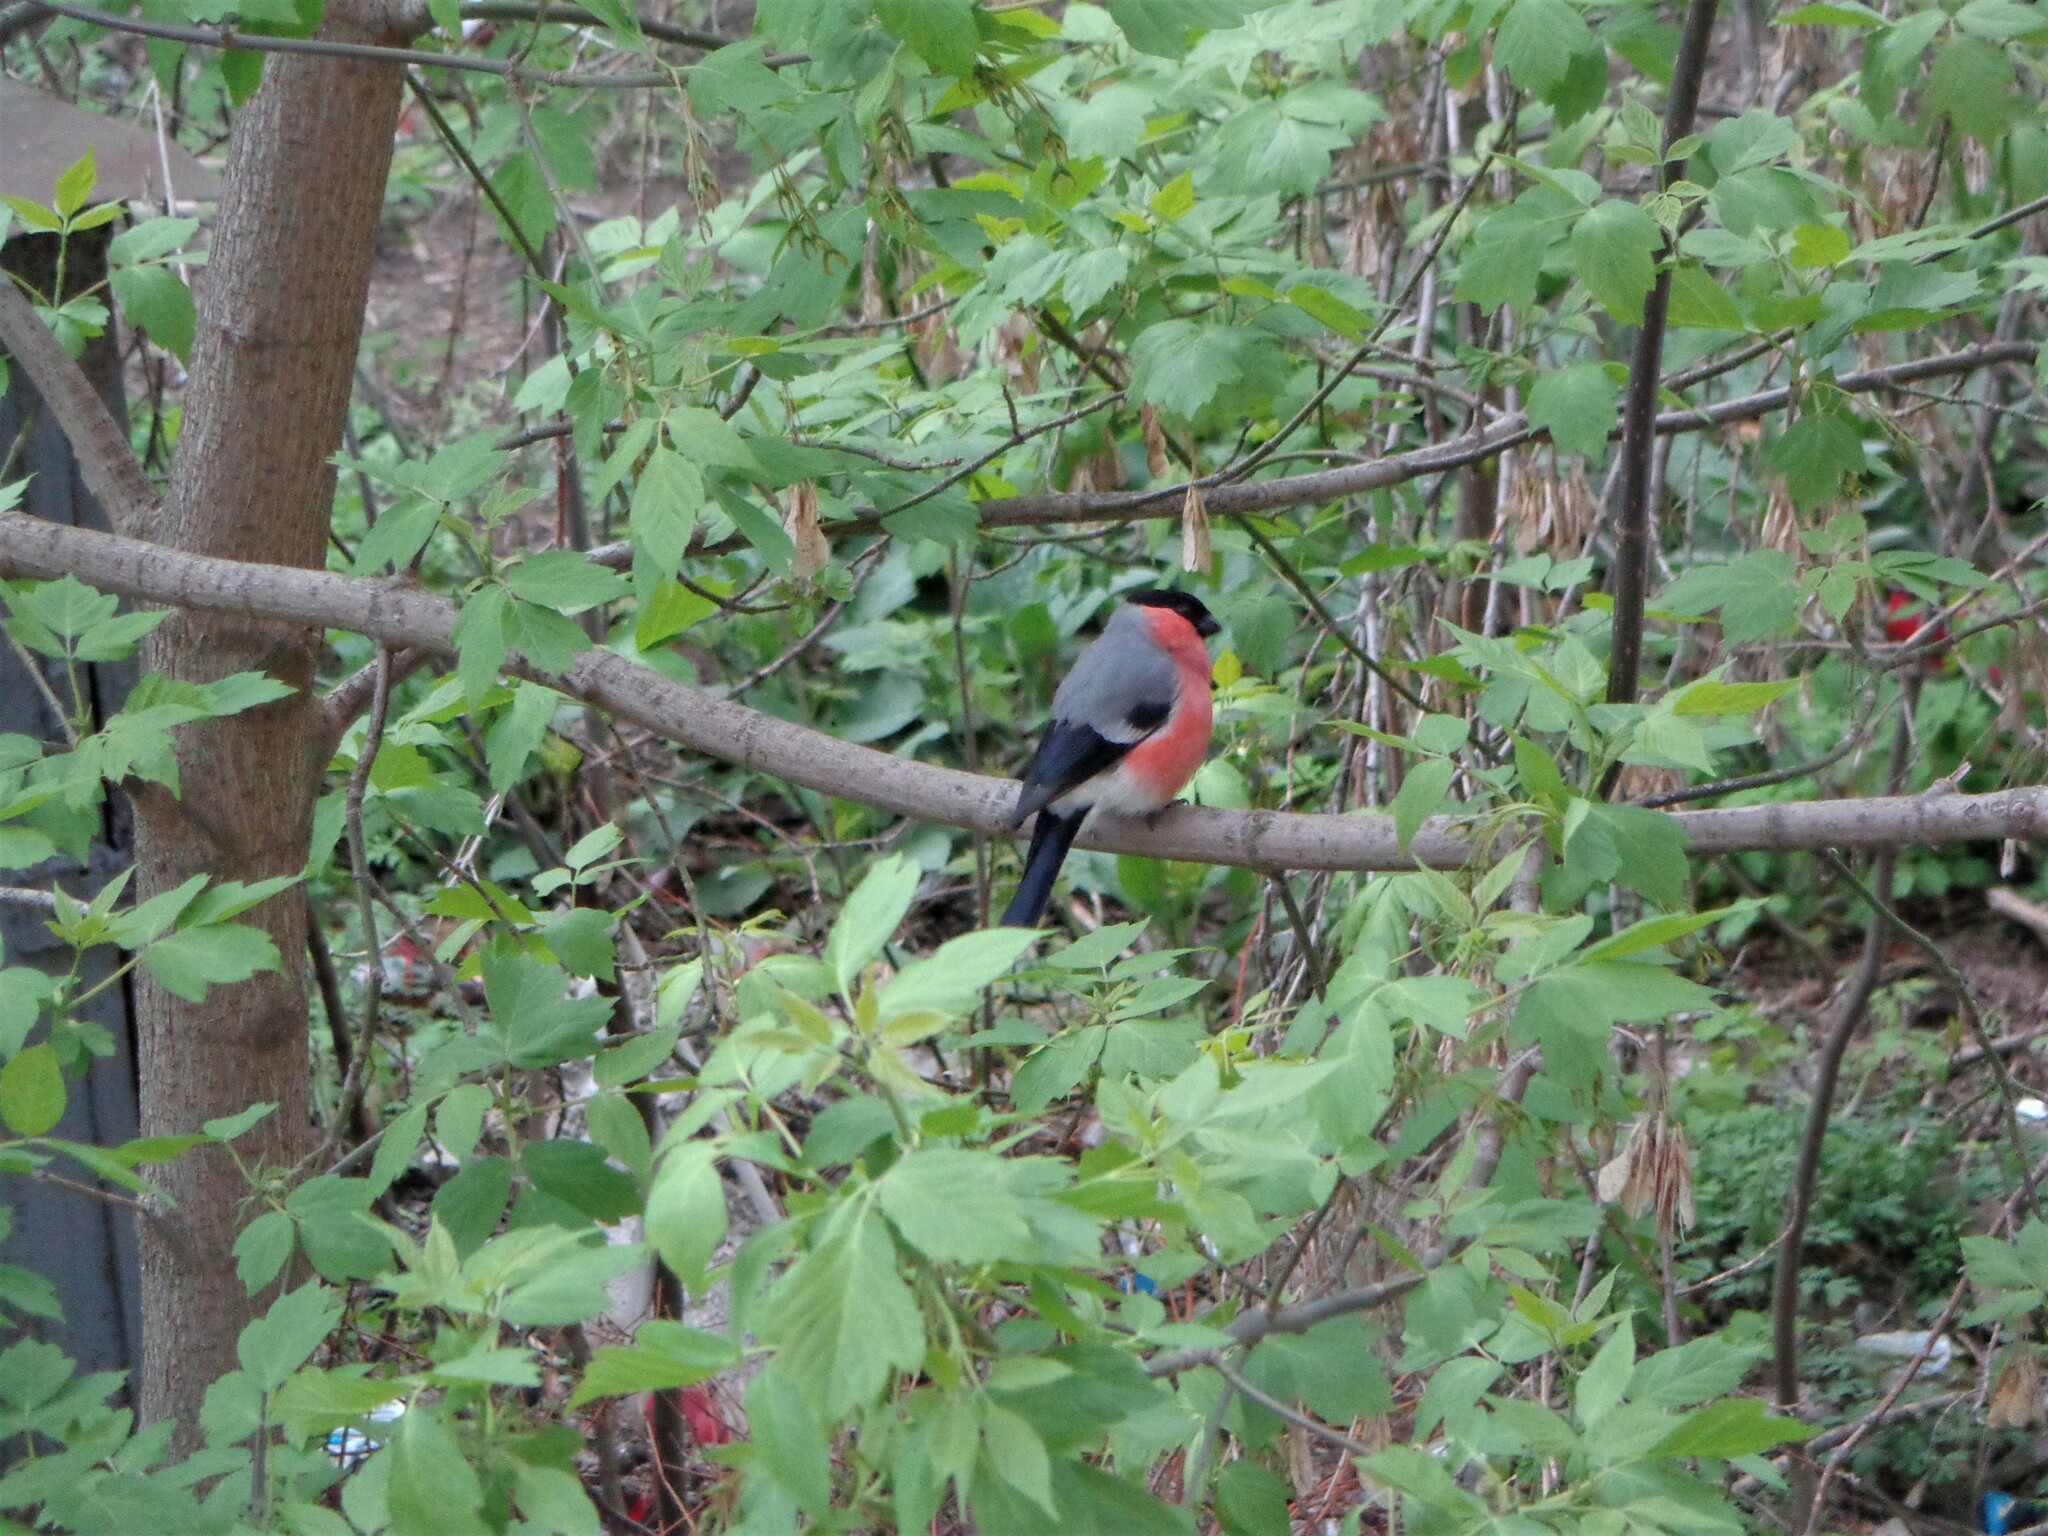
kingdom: Animalia
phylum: Chordata
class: Aves
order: Passeriformes
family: Fringillidae
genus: Pyrrhula
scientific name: Pyrrhula pyrrhula
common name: Eurasian bullfinch
